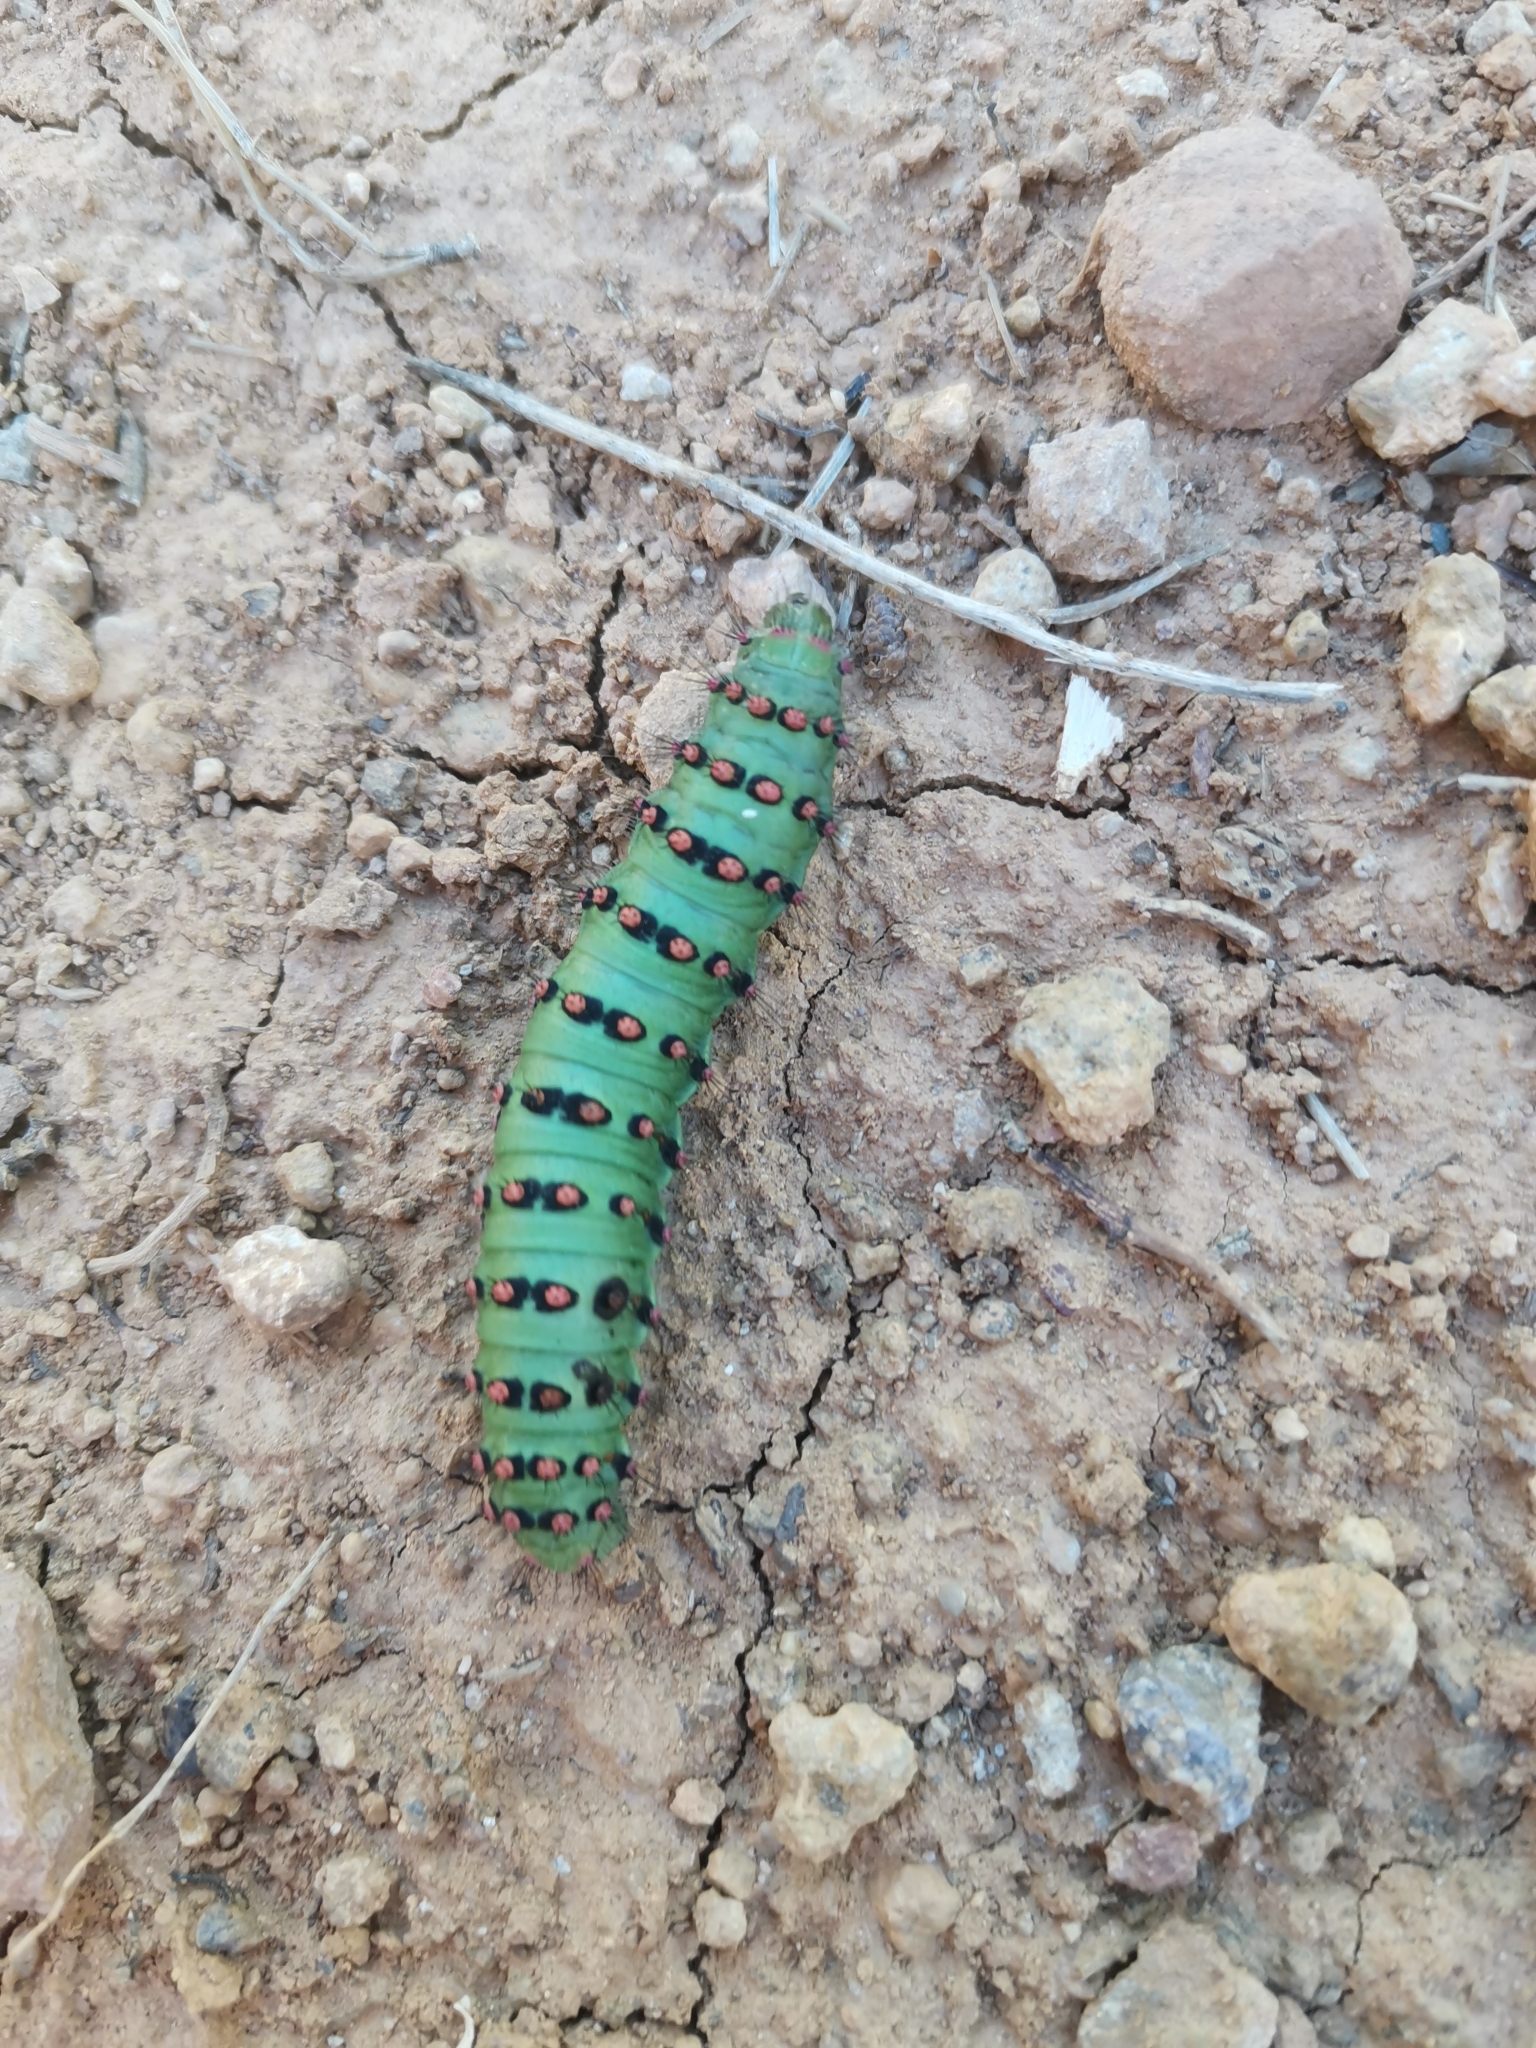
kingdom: Animalia
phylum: Arthropoda
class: Insecta
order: Lepidoptera
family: Saturniidae
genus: Saturnia
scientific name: Saturnia pavonia
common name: Emperor moth
